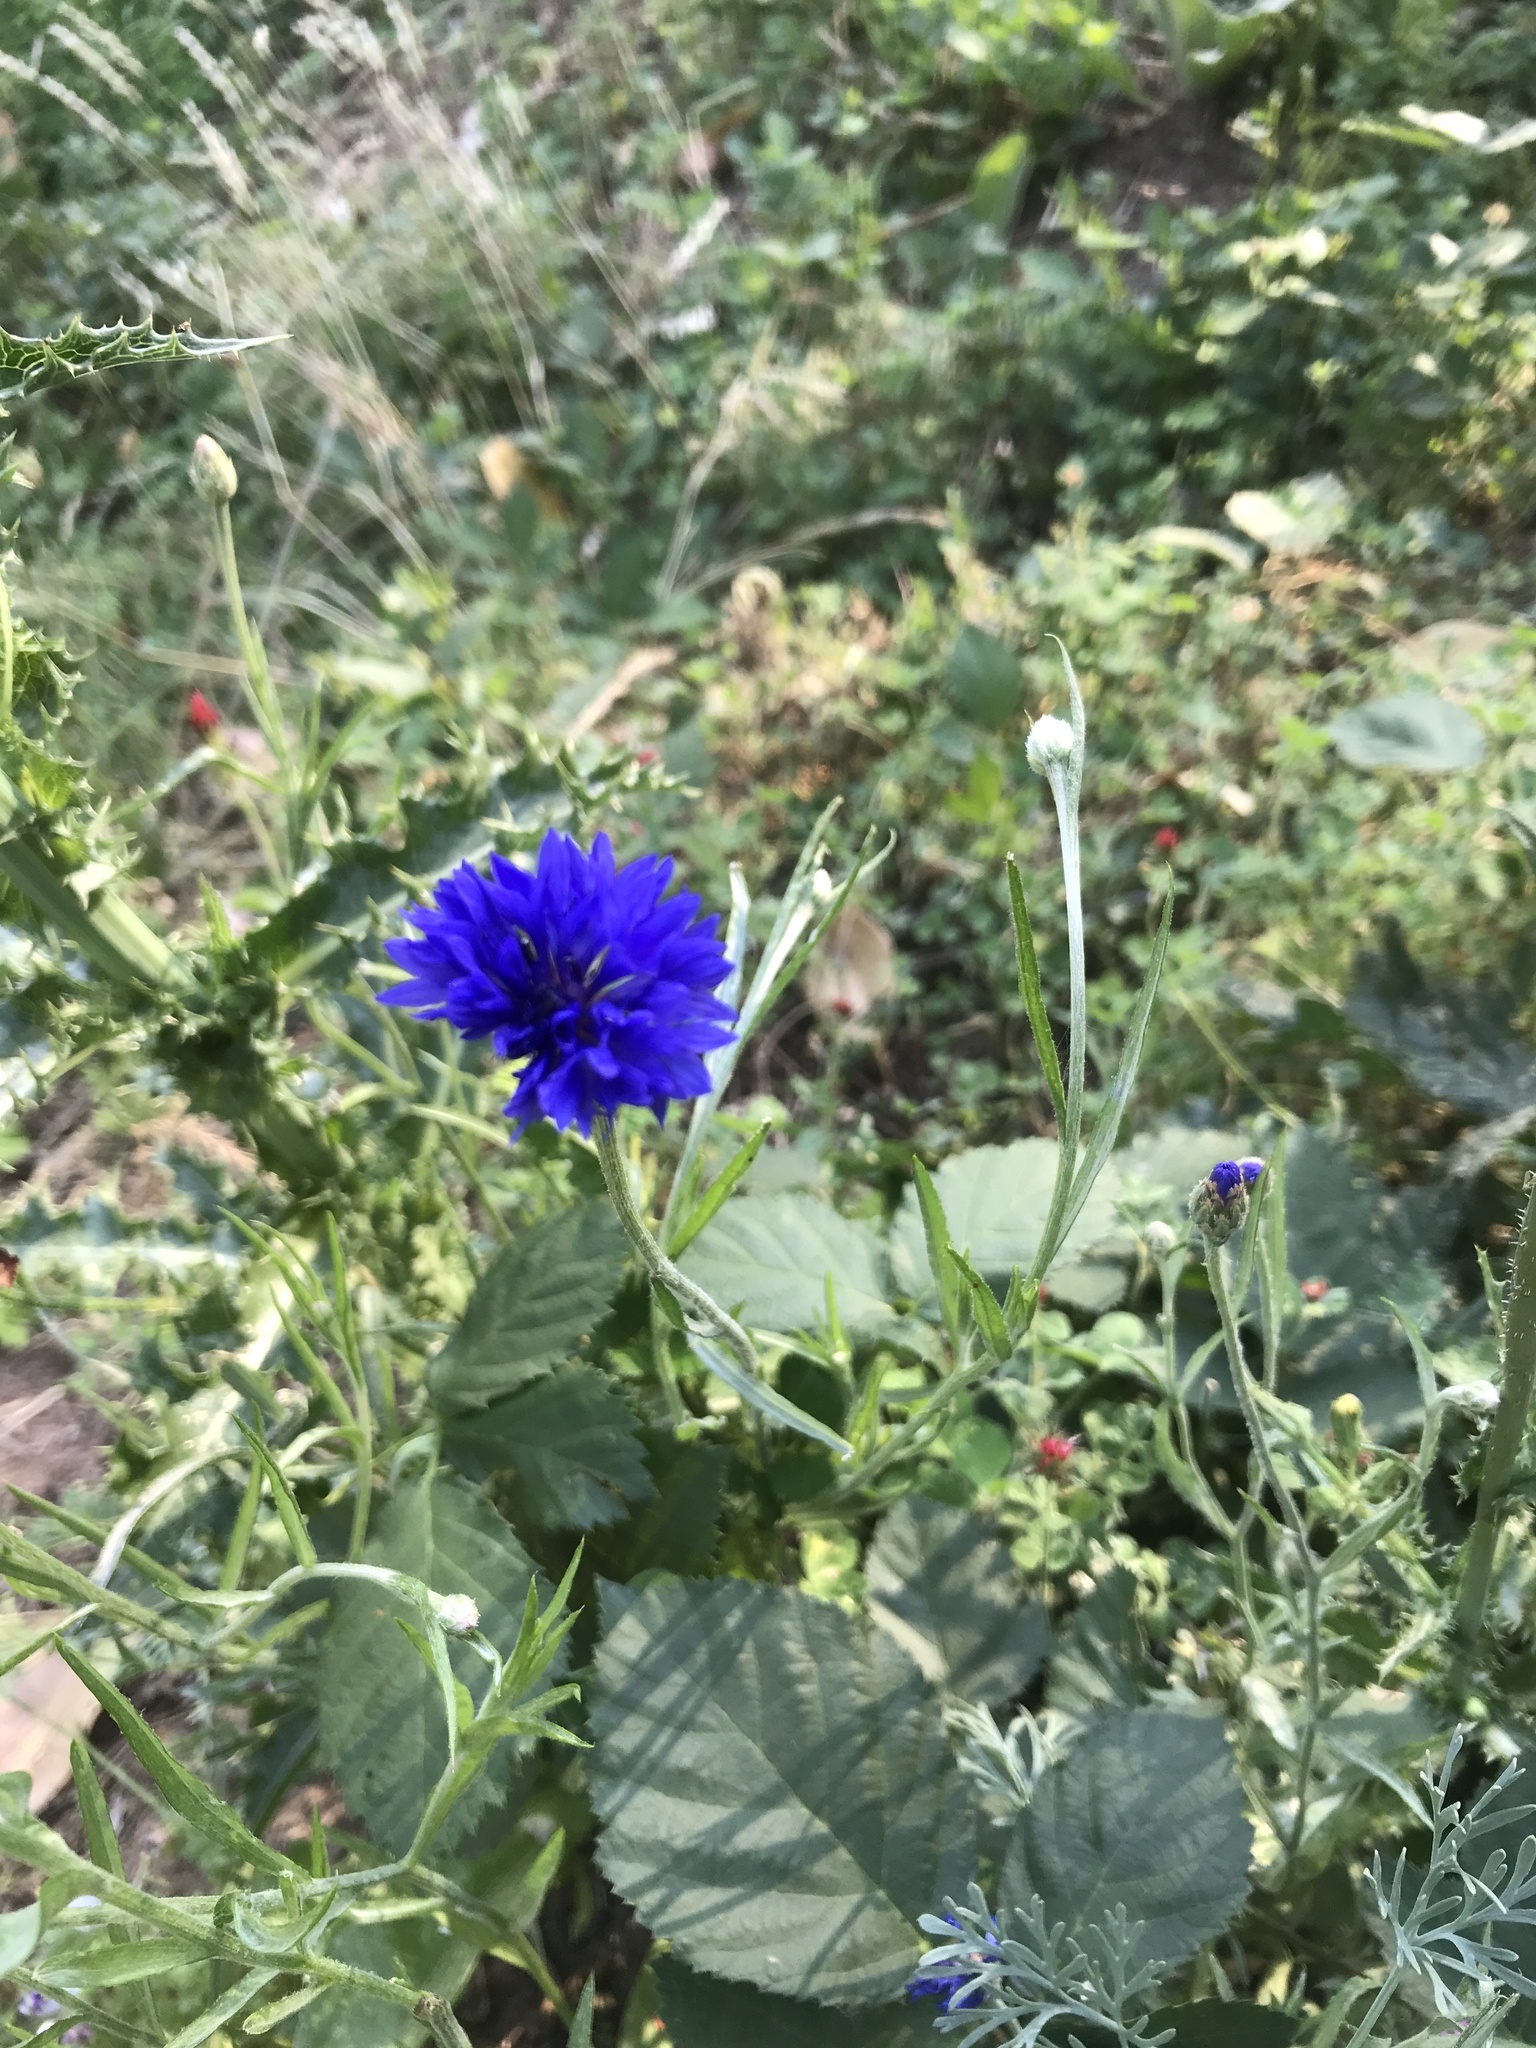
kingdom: Plantae
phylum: Tracheophyta
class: Magnoliopsida
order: Asterales
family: Asteraceae
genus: Centaurea
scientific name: Centaurea cyanus
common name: Cornflower
